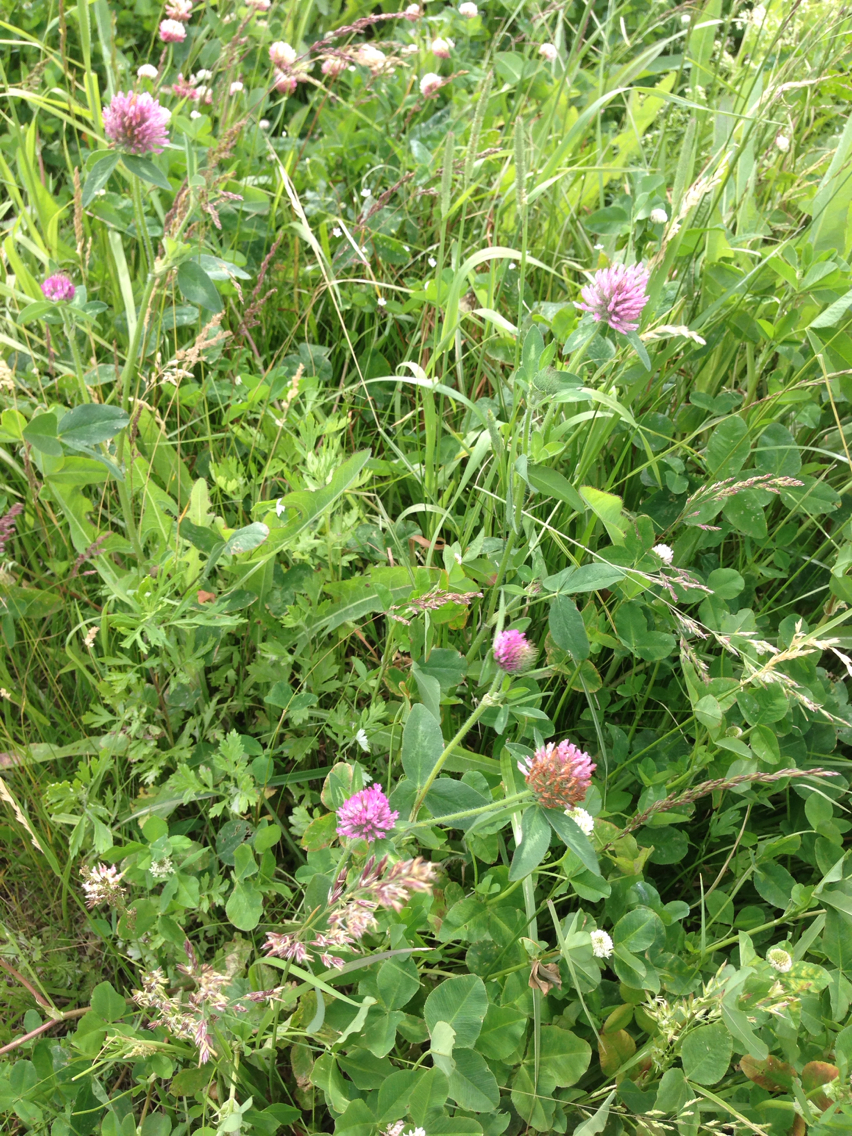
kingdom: Plantae
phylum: Tracheophyta
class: Magnoliopsida
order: Fabales
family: Fabaceae
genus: Trifolium
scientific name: Trifolium pratense
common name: Red clover
